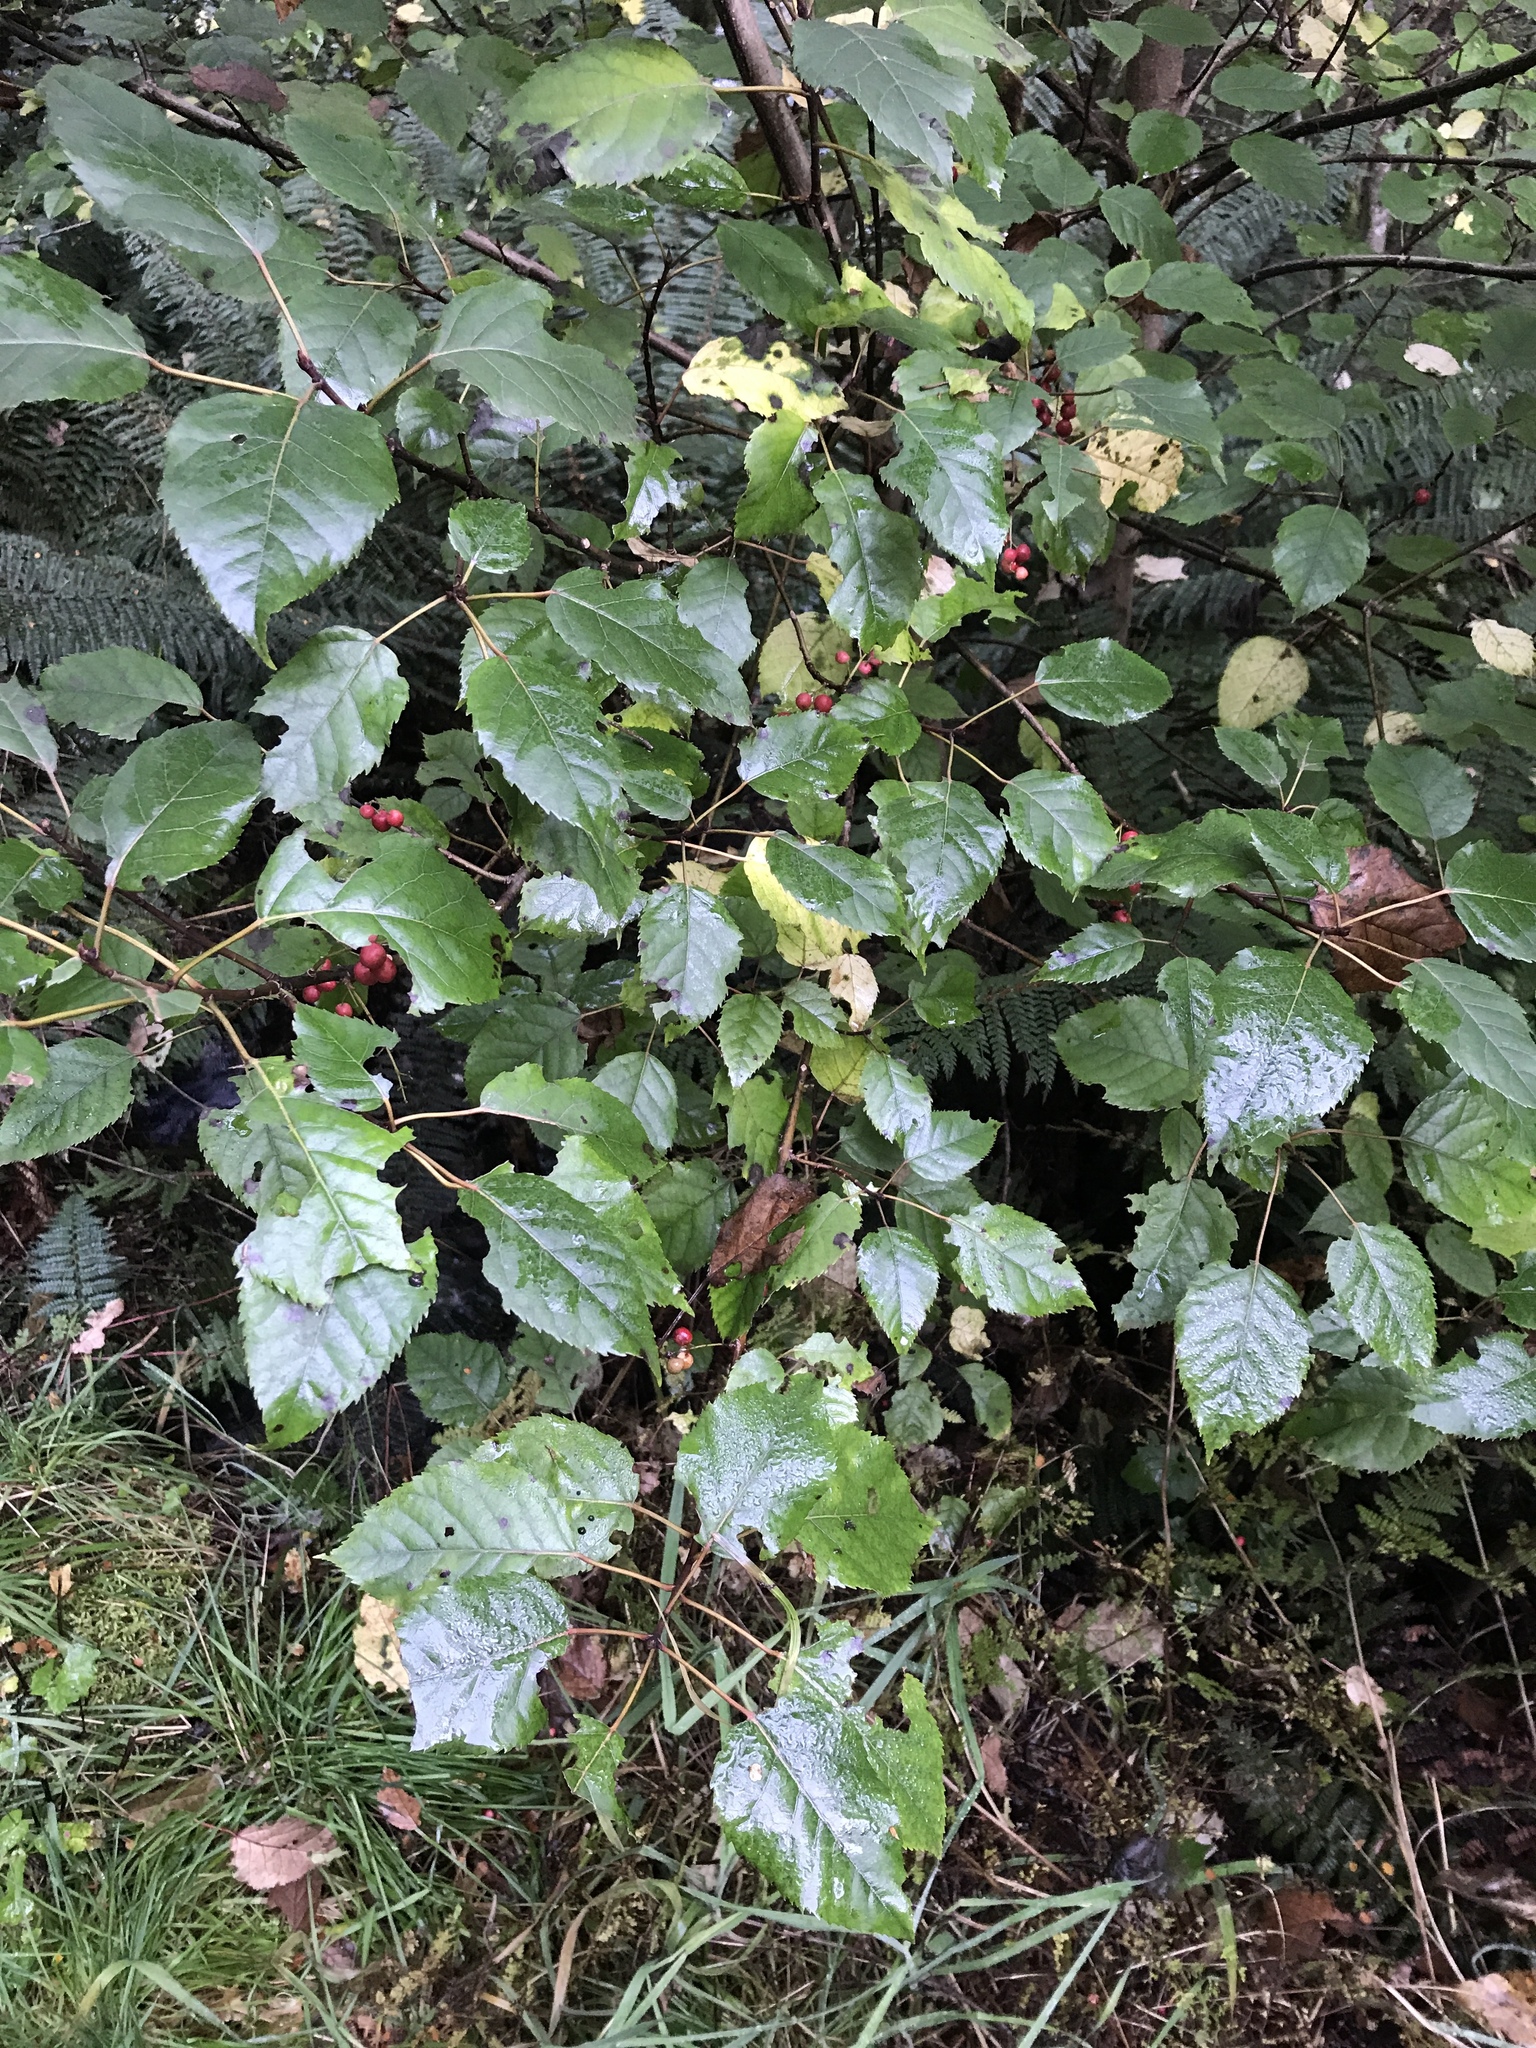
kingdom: Plantae
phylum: Tracheophyta
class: Magnoliopsida
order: Oxalidales
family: Elaeocarpaceae
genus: Aristotelia
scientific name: Aristotelia serrata
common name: New zealand wineberry
